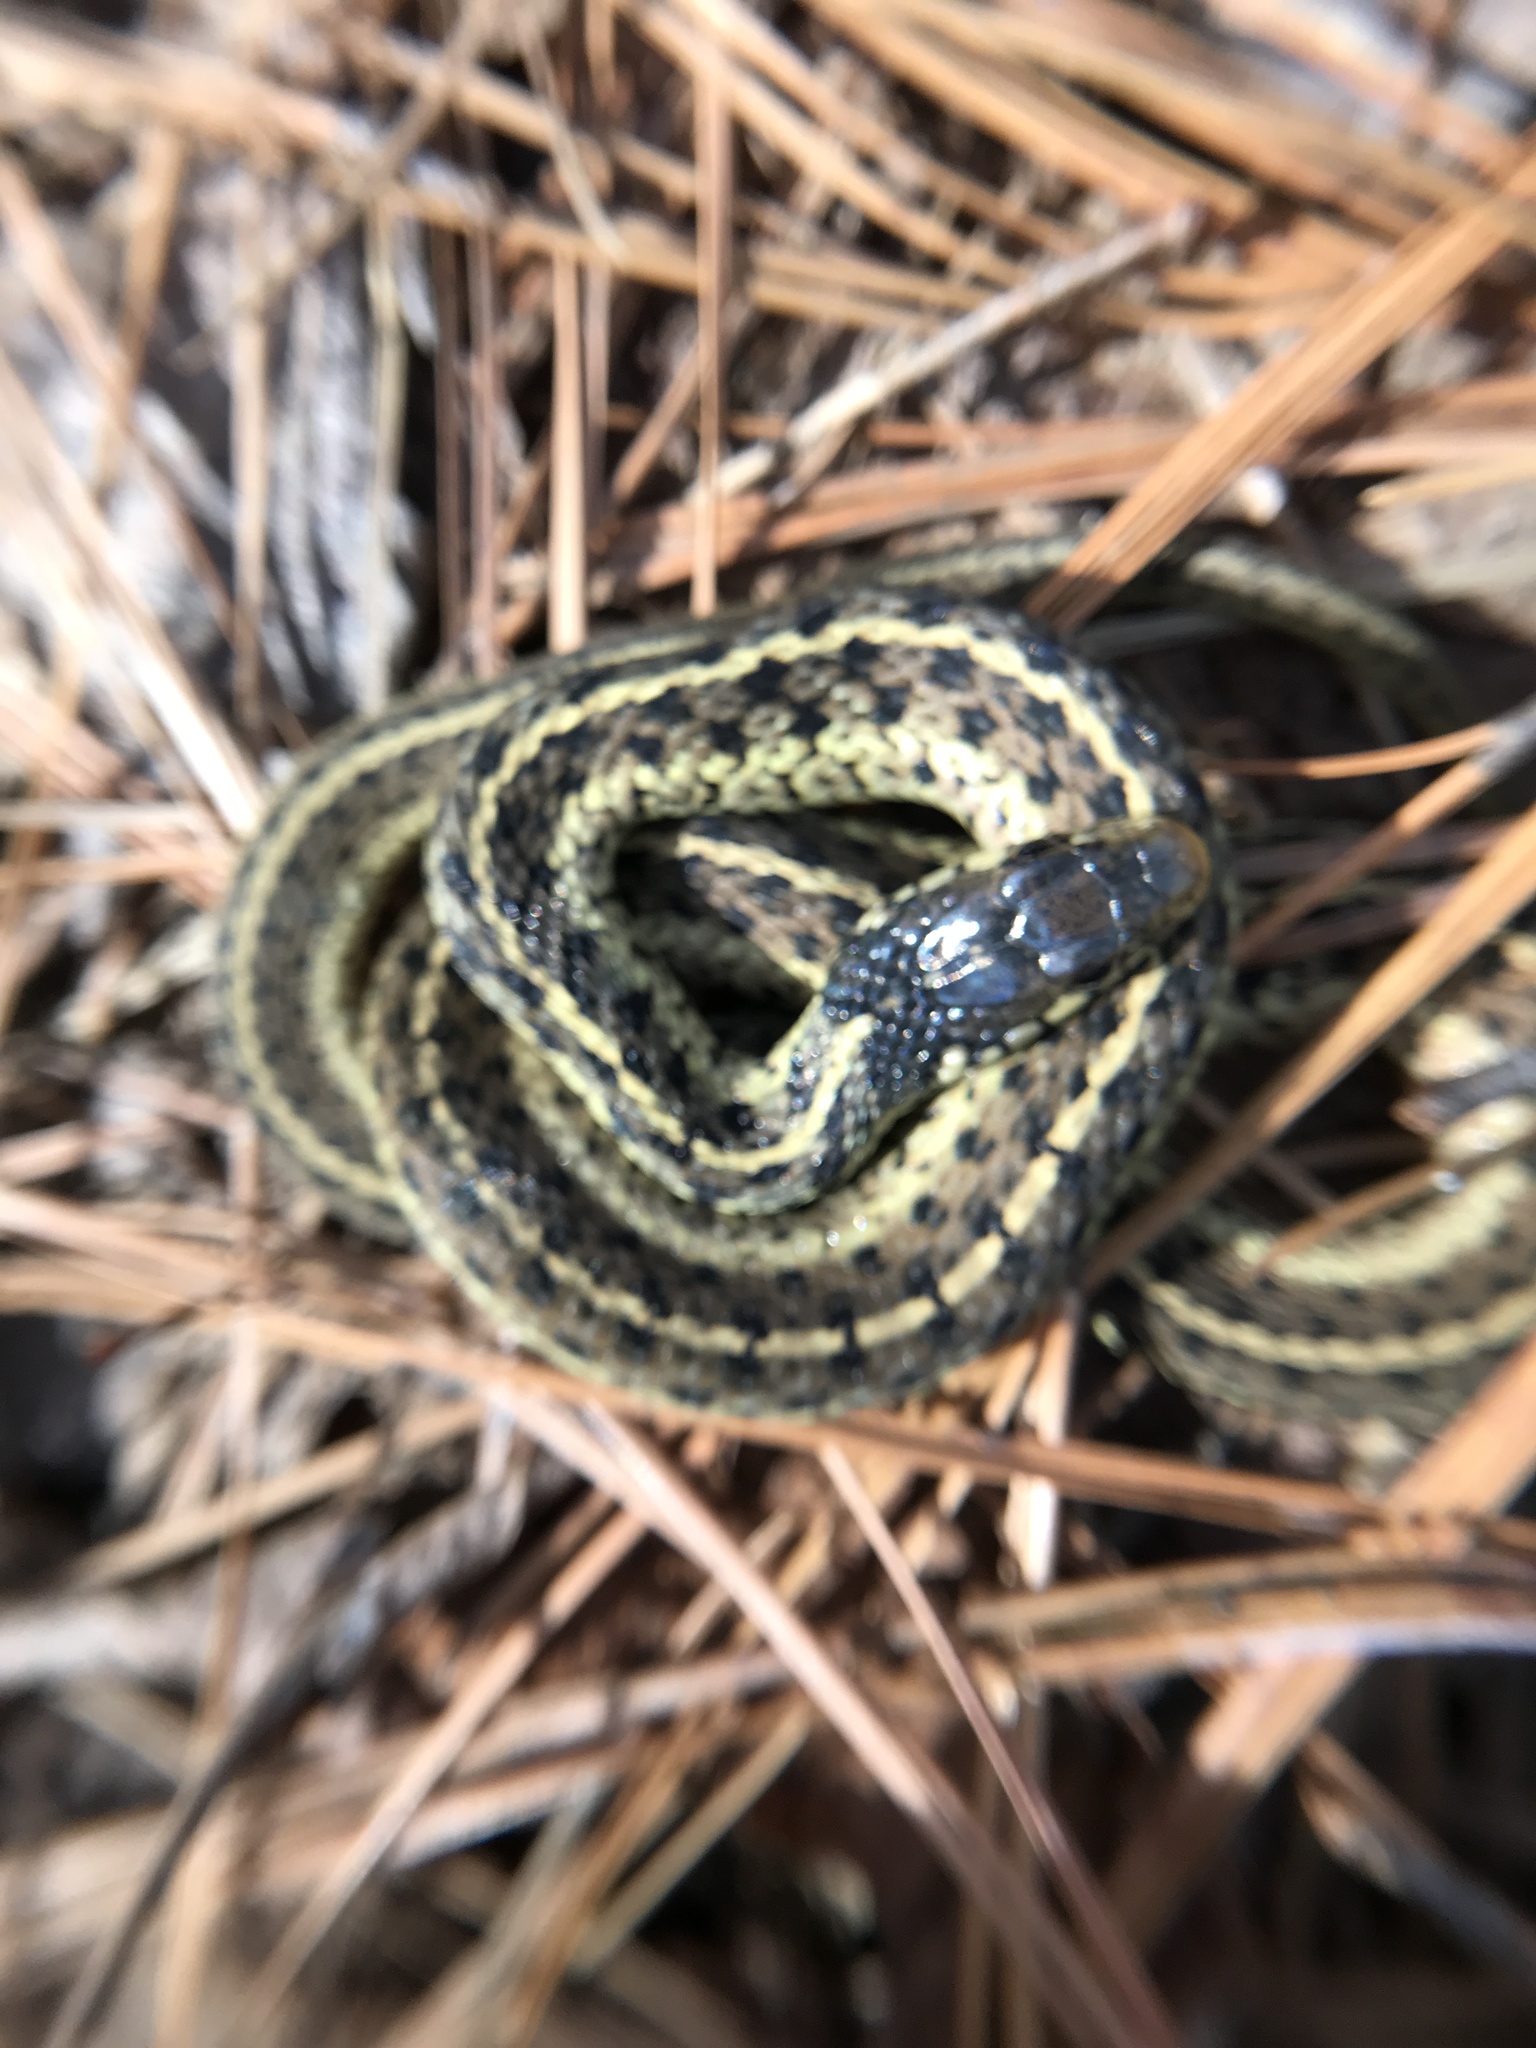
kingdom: Animalia
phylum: Chordata
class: Squamata
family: Colubridae
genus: Thamnophis
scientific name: Thamnophis sirtalis
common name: Common garter snake
